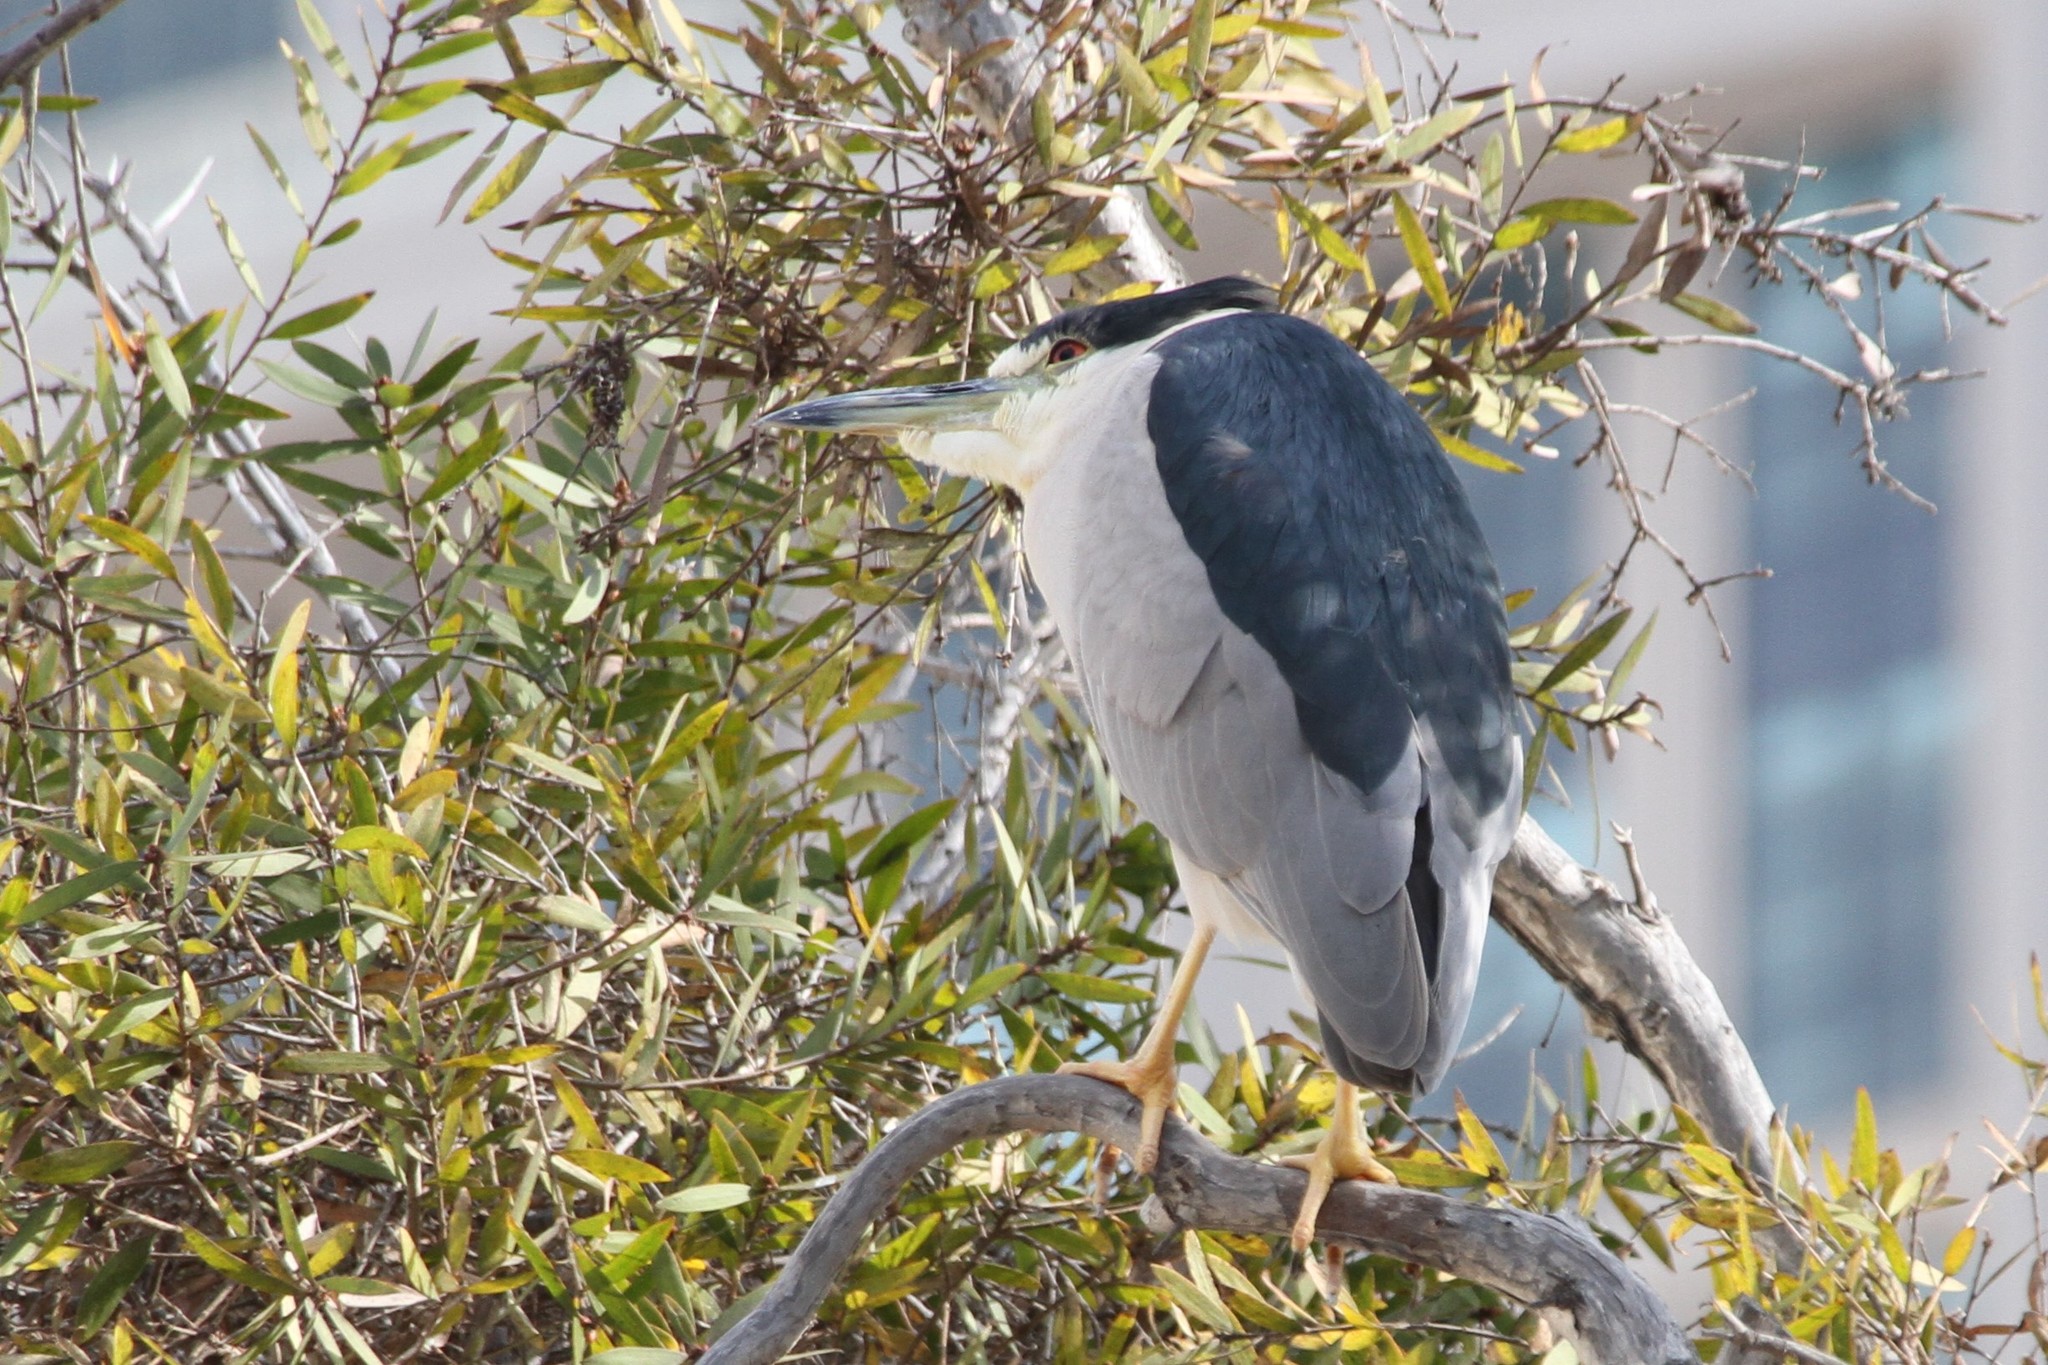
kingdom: Animalia
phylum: Chordata
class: Aves
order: Pelecaniformes
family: Ardeidae
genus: Nycticorax
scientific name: Nycticorax nycticorax
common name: Black-crowned night heron
